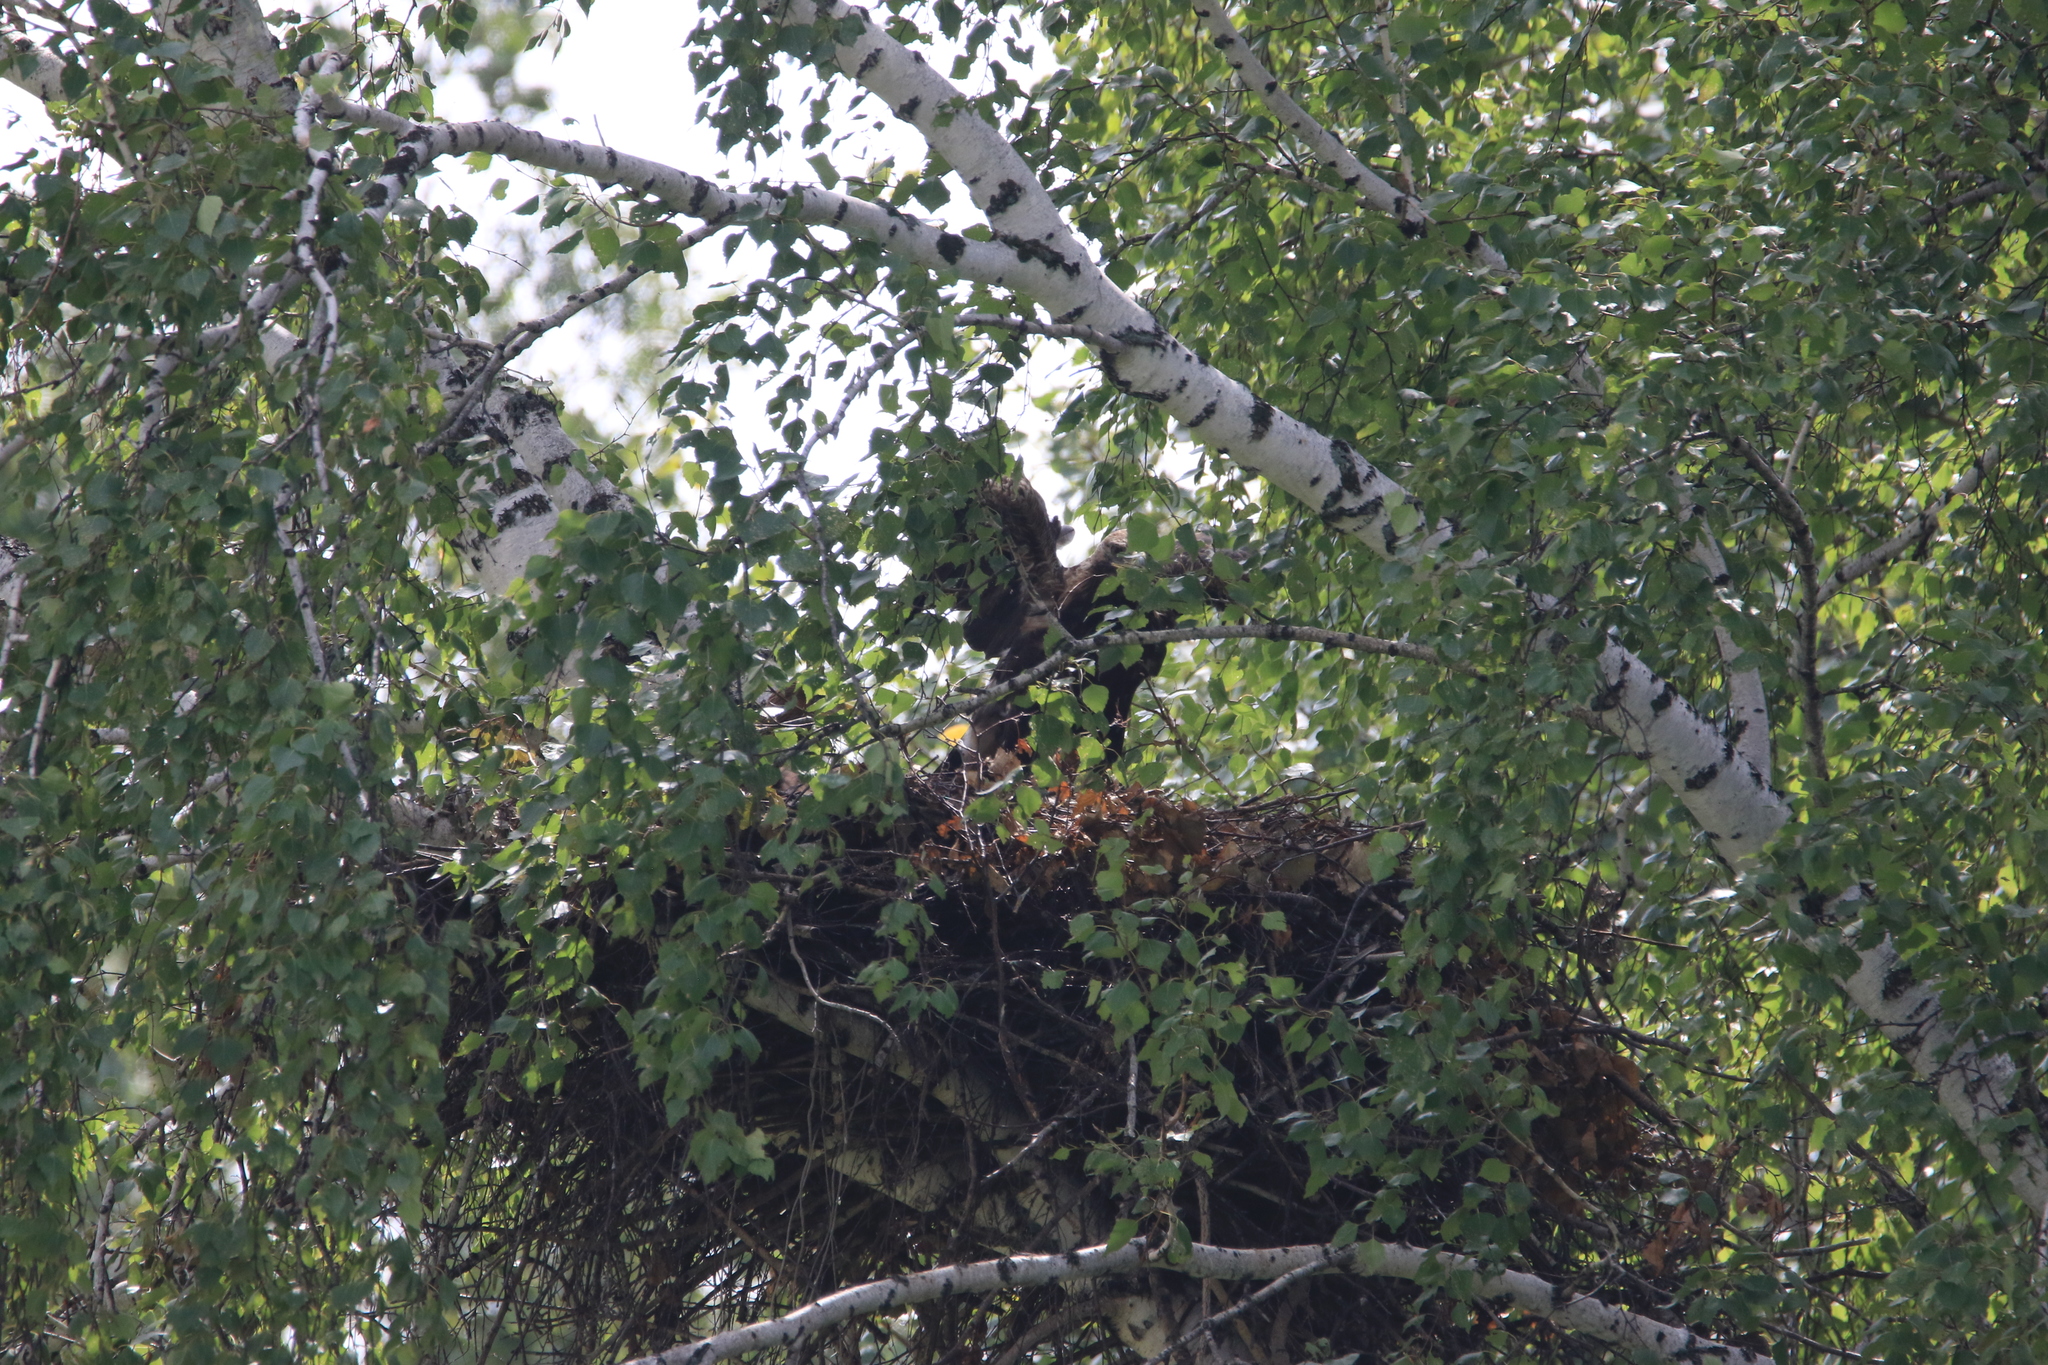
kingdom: Animalia
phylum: Chordata
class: Aves
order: Accipitriformes
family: Accipitridae
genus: Aquila
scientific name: Aquila heliaca
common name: Eastern imperial eagle
